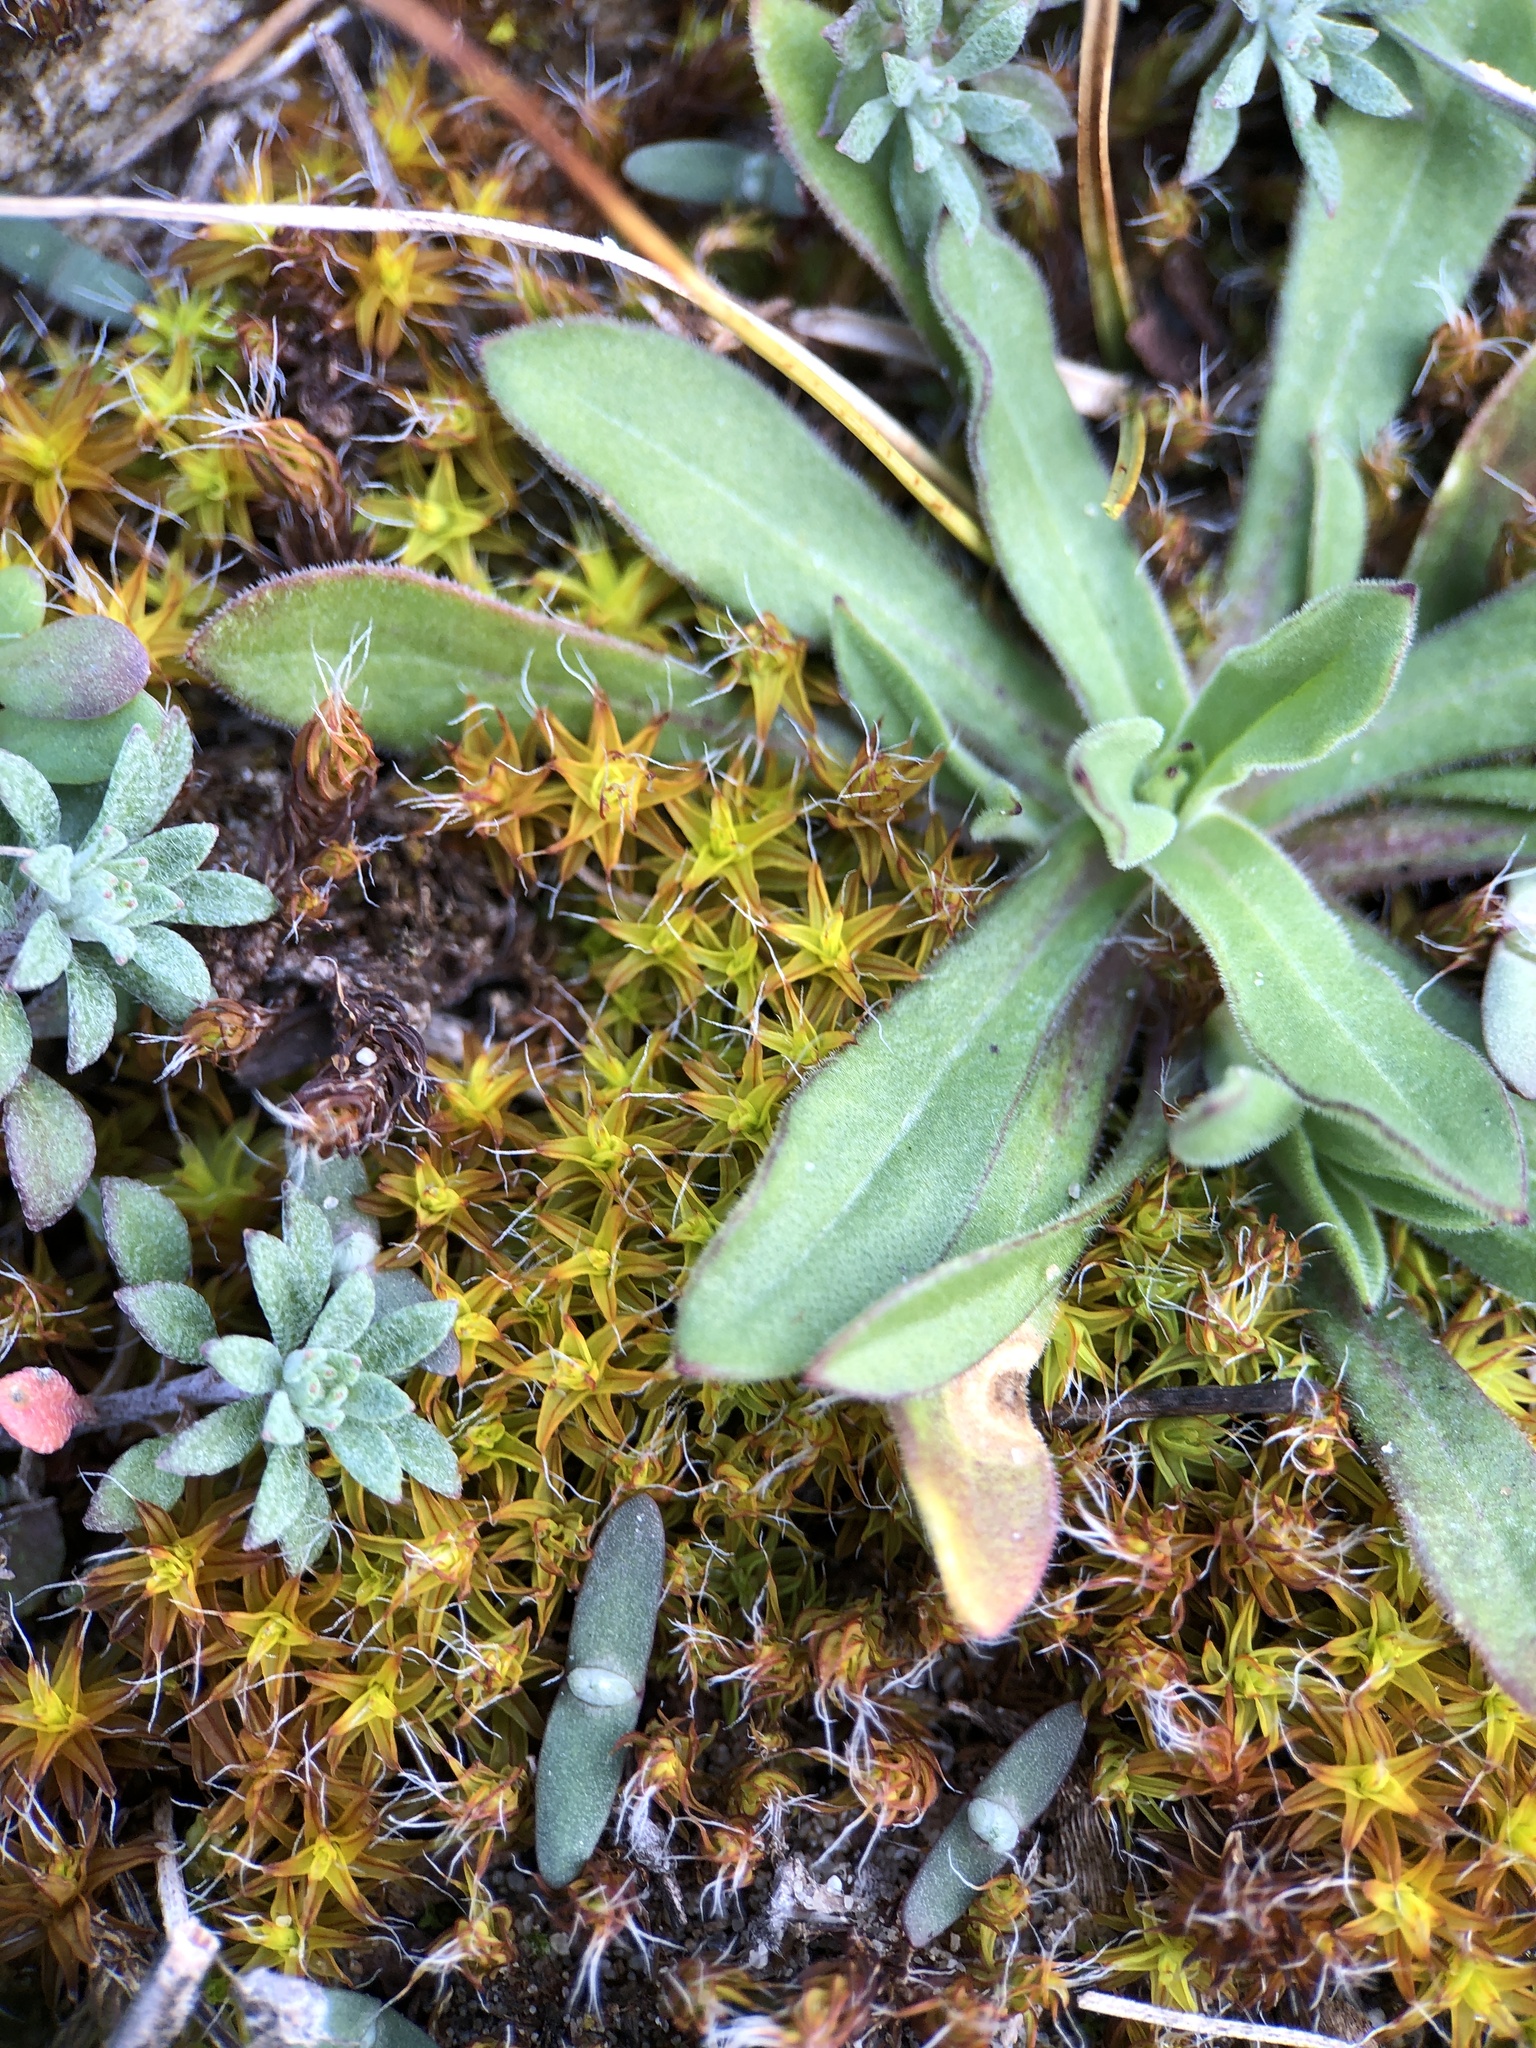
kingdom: Plantae
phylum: Bryophyta
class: Bryopsida
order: Pottiales
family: Pottiaceae
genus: Syntrichia
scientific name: Syntrichia ruralis
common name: Sidewalk screw moss
